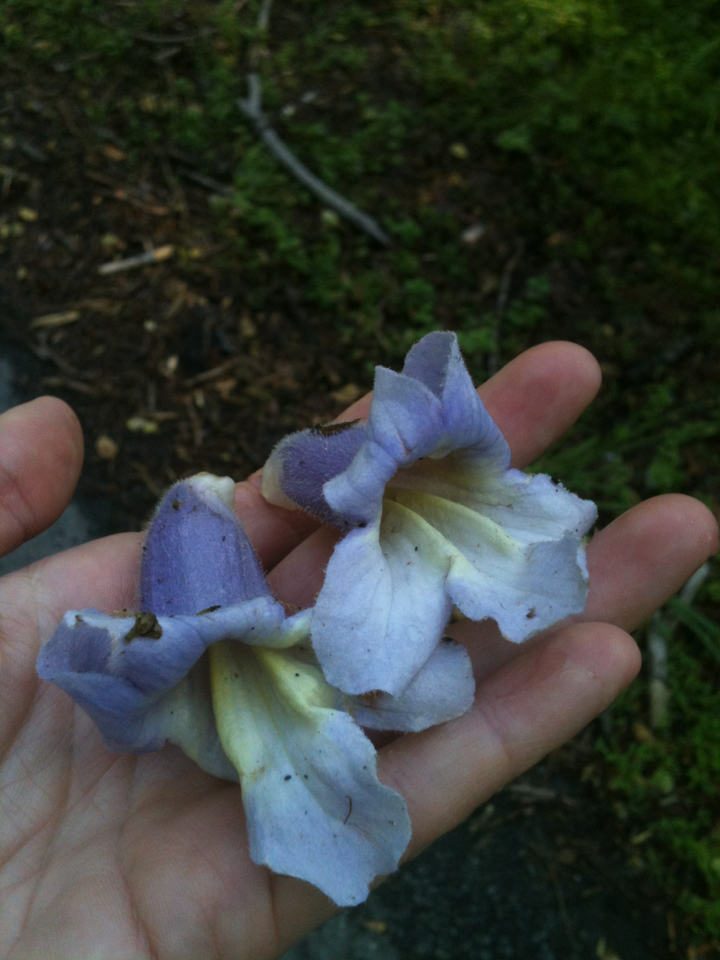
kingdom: Plantae
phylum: Tracheophyta
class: Magnoliopsida
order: Lamiales
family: Paulowniaceae
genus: Paulownia
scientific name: Paulownia tomentosa
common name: Foxglove-tree
